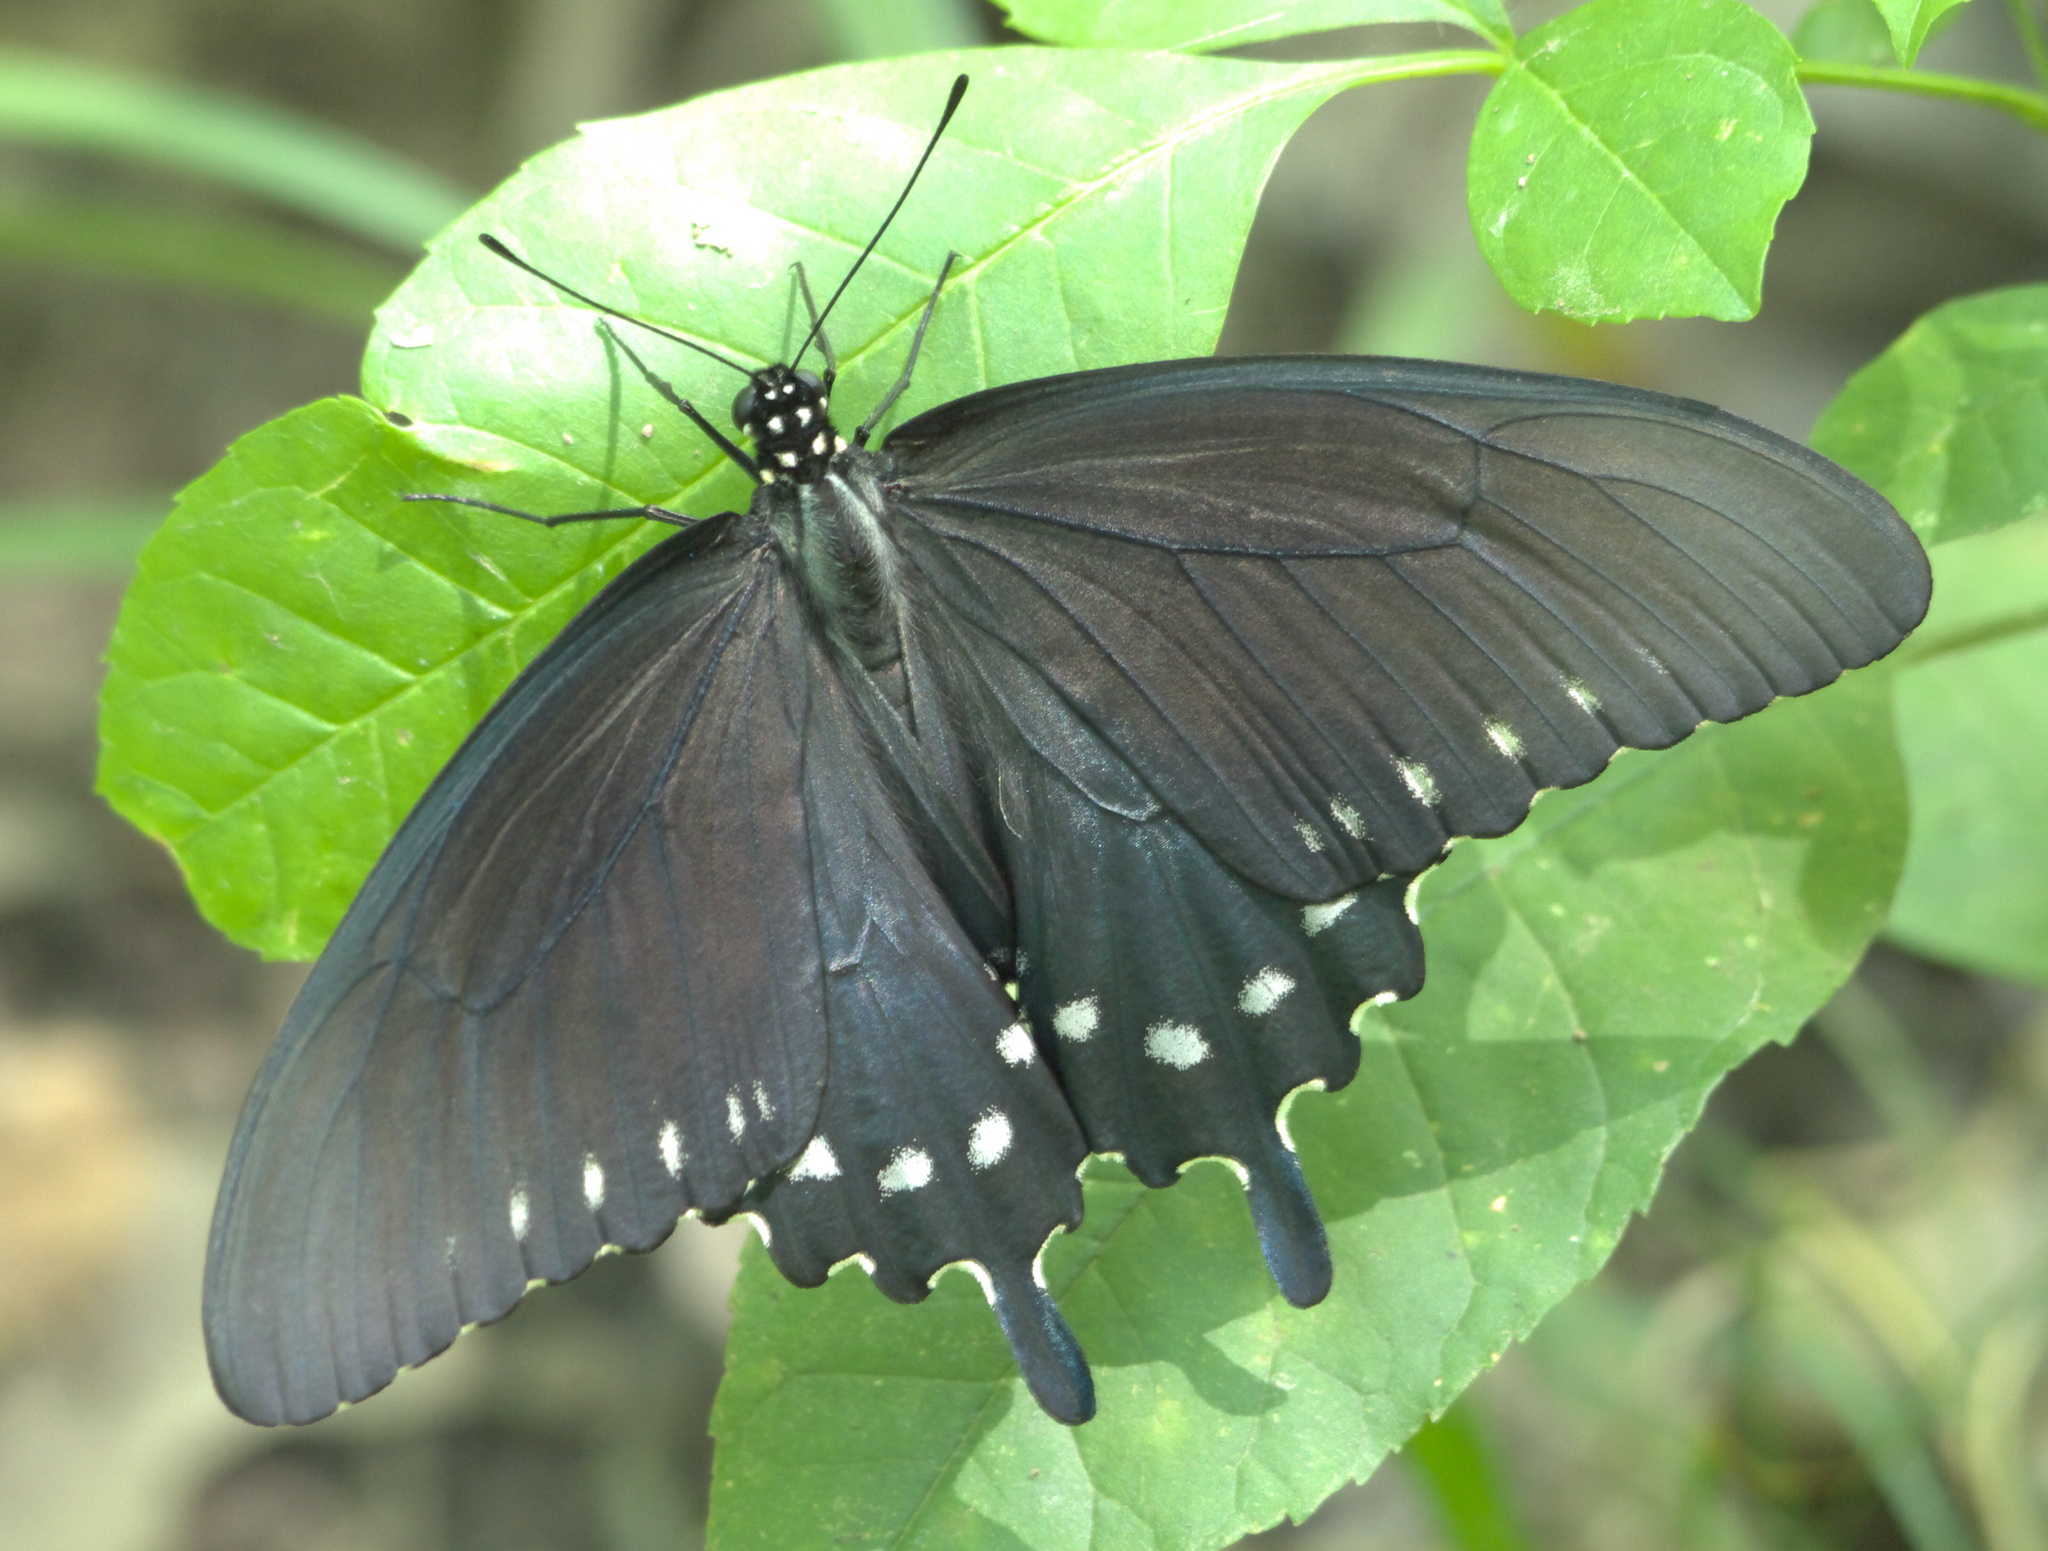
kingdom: Animalia
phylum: Arthropoda
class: Insecta
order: Lepidoptera
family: Papilionidae
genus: Battus
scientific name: Battus philenor
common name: Pipevine swallowtail
